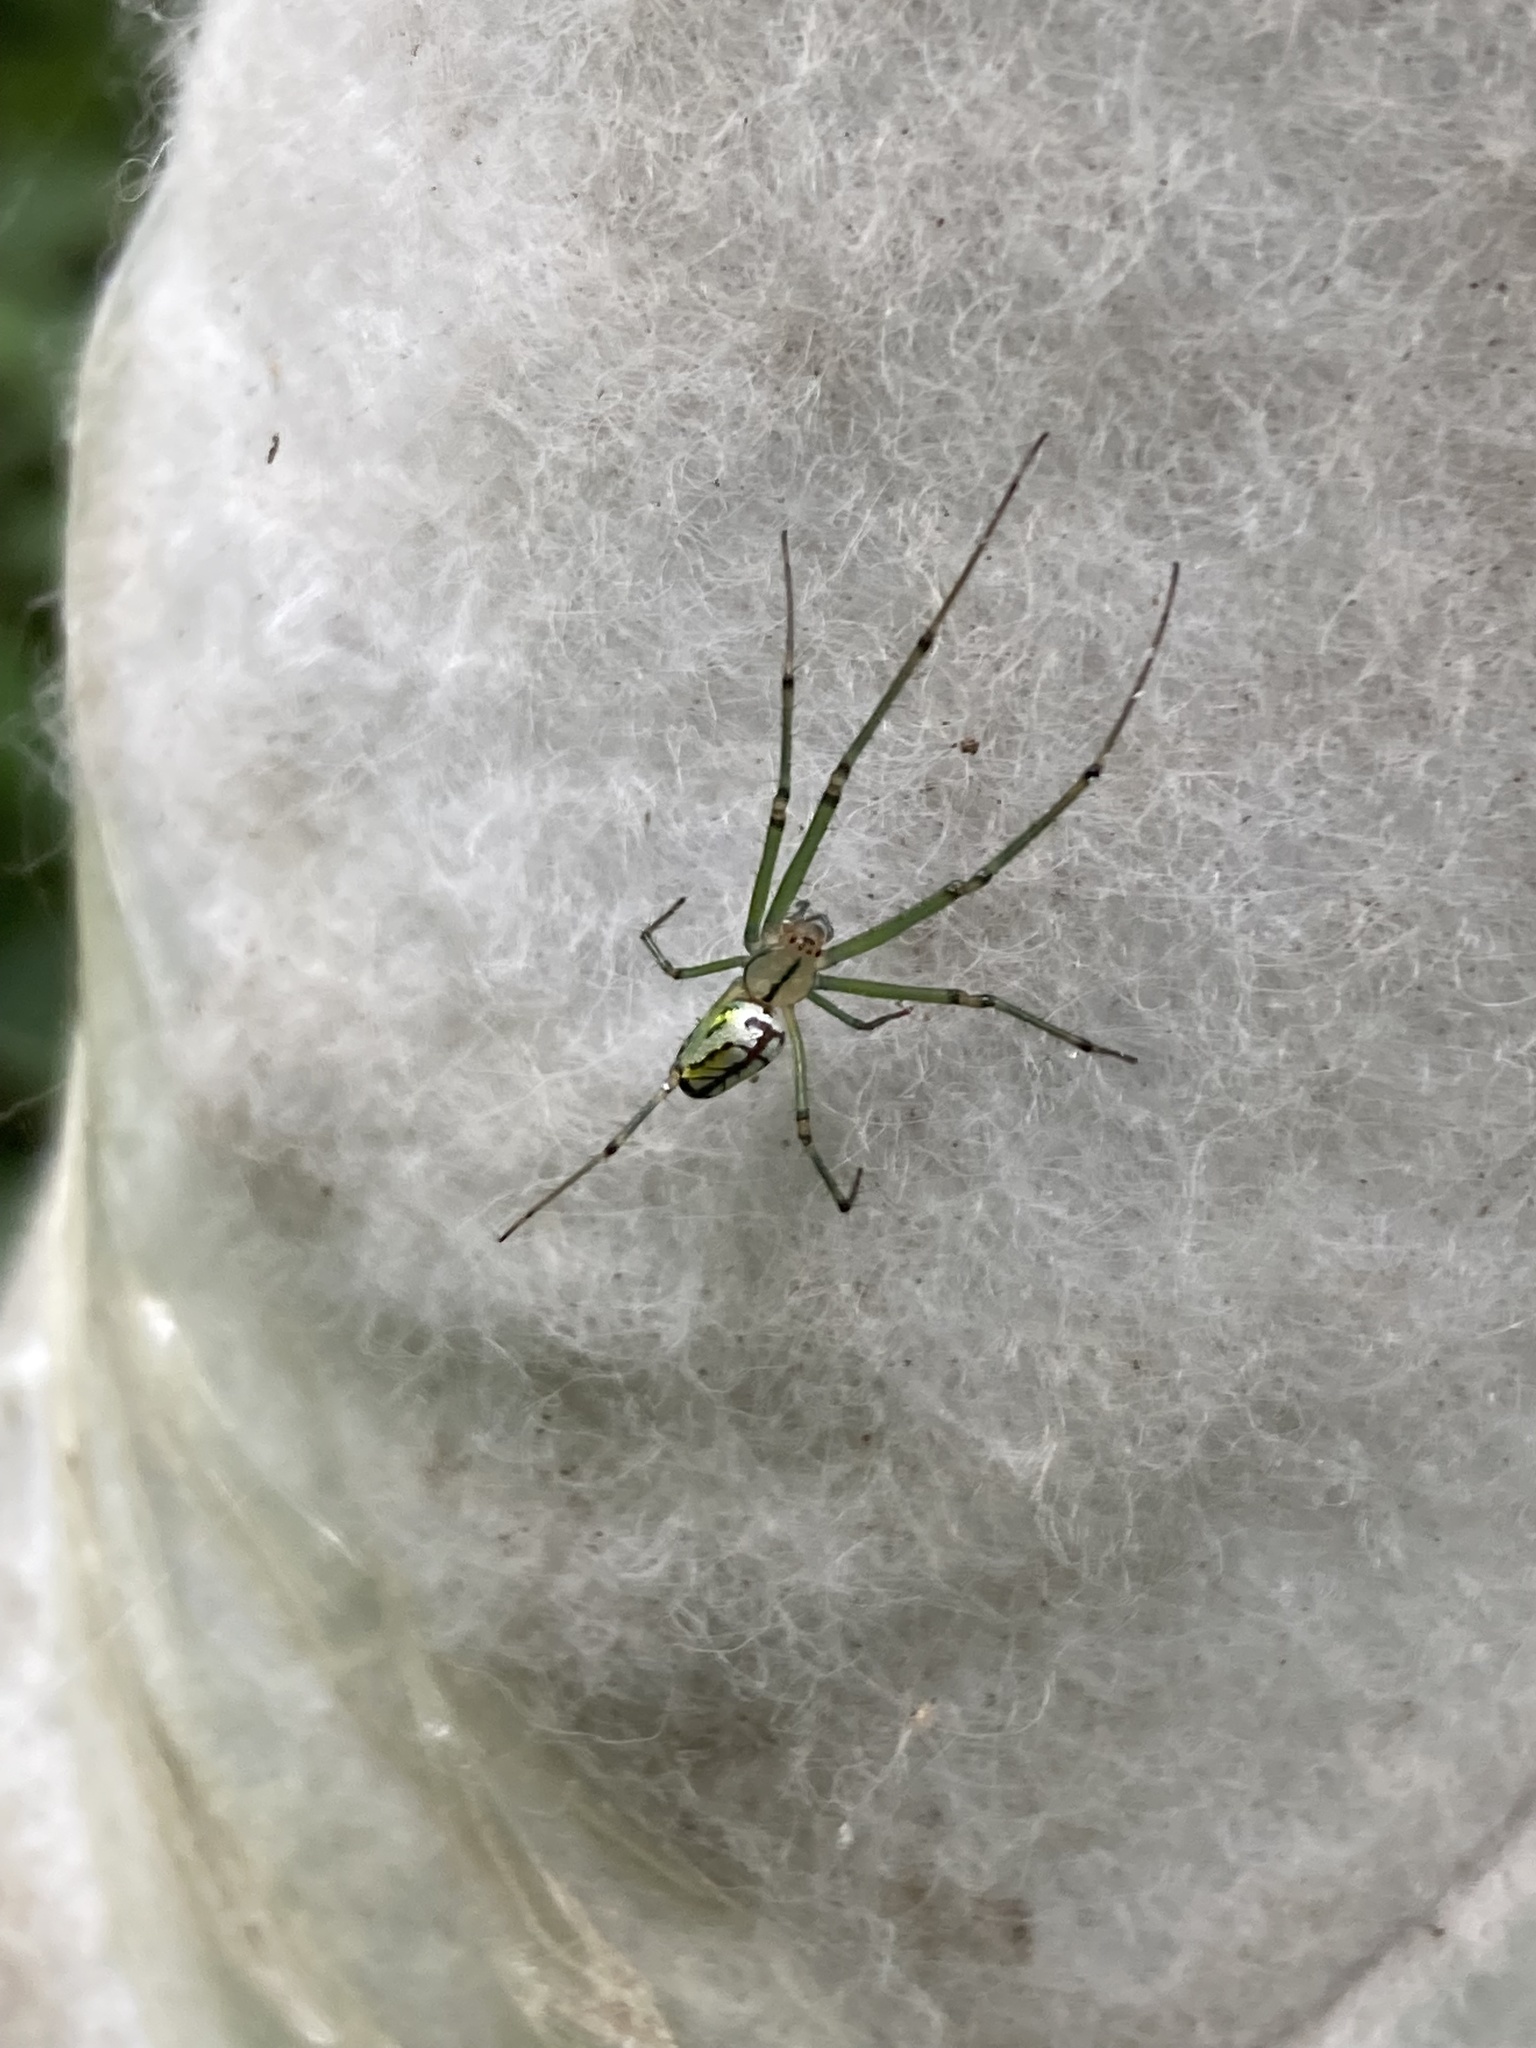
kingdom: Animalia
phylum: Arthropoda
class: Arachnida
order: Araneae
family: Tetragnathidae
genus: Leucauge
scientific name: Leucauge venusta
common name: Longjawed orb weavers
